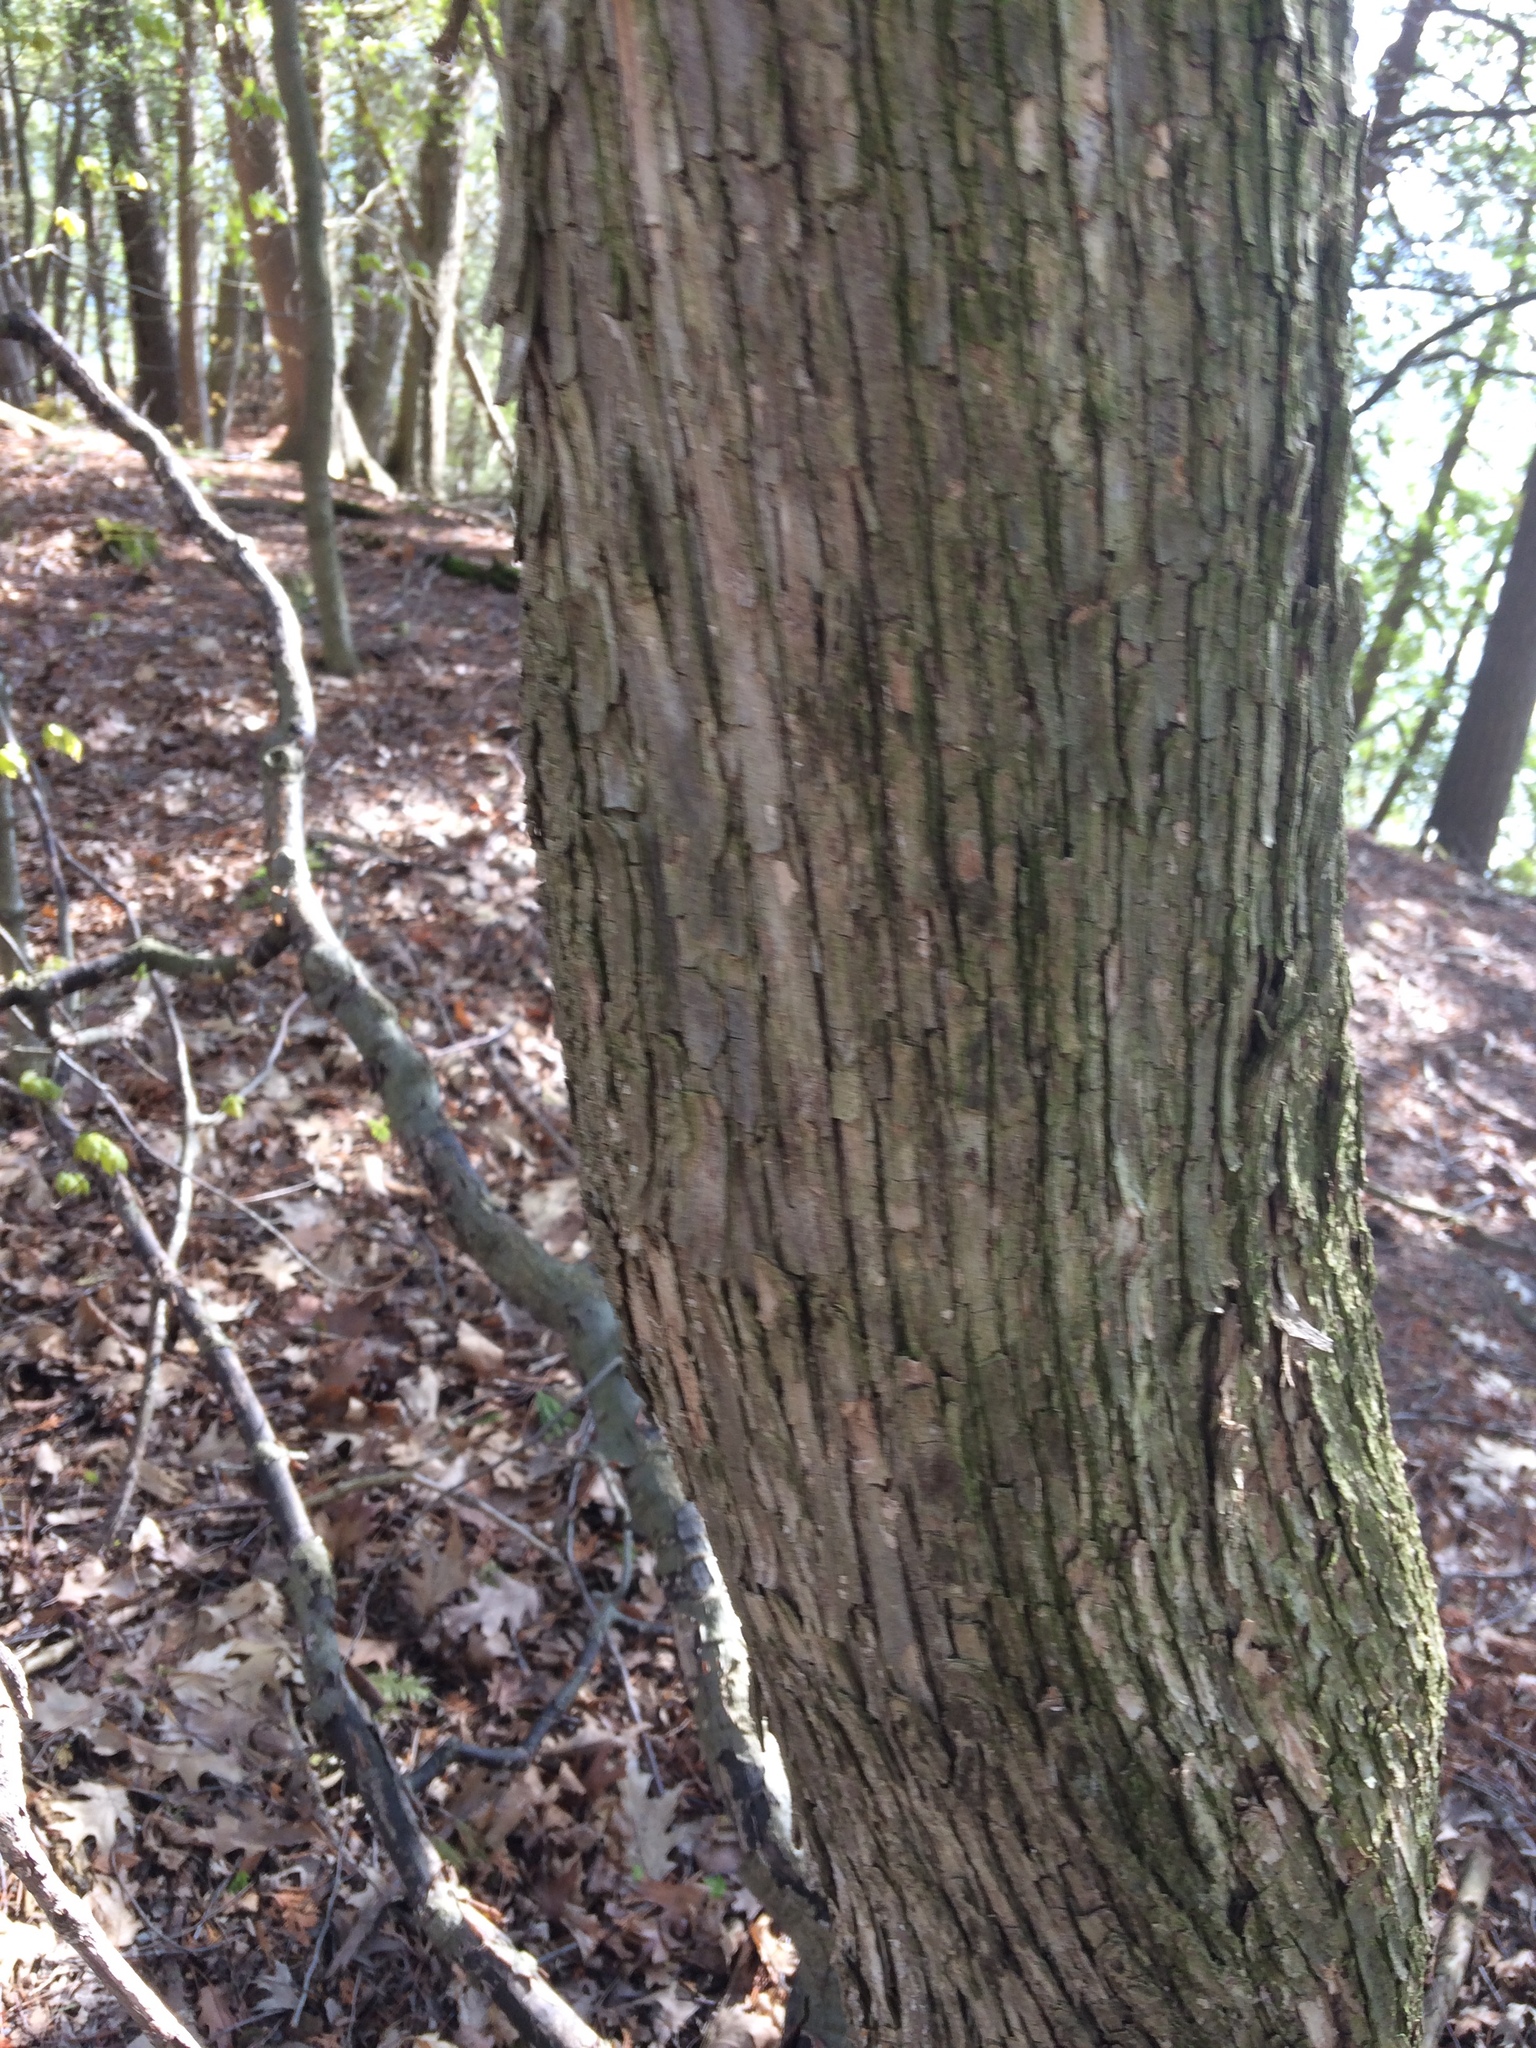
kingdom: Plantae
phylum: Tracheophyta
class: Magnoliopsida
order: Fagales
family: Betulaceae
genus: Ostrya
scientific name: Ostrya virginiana
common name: Ironwood
